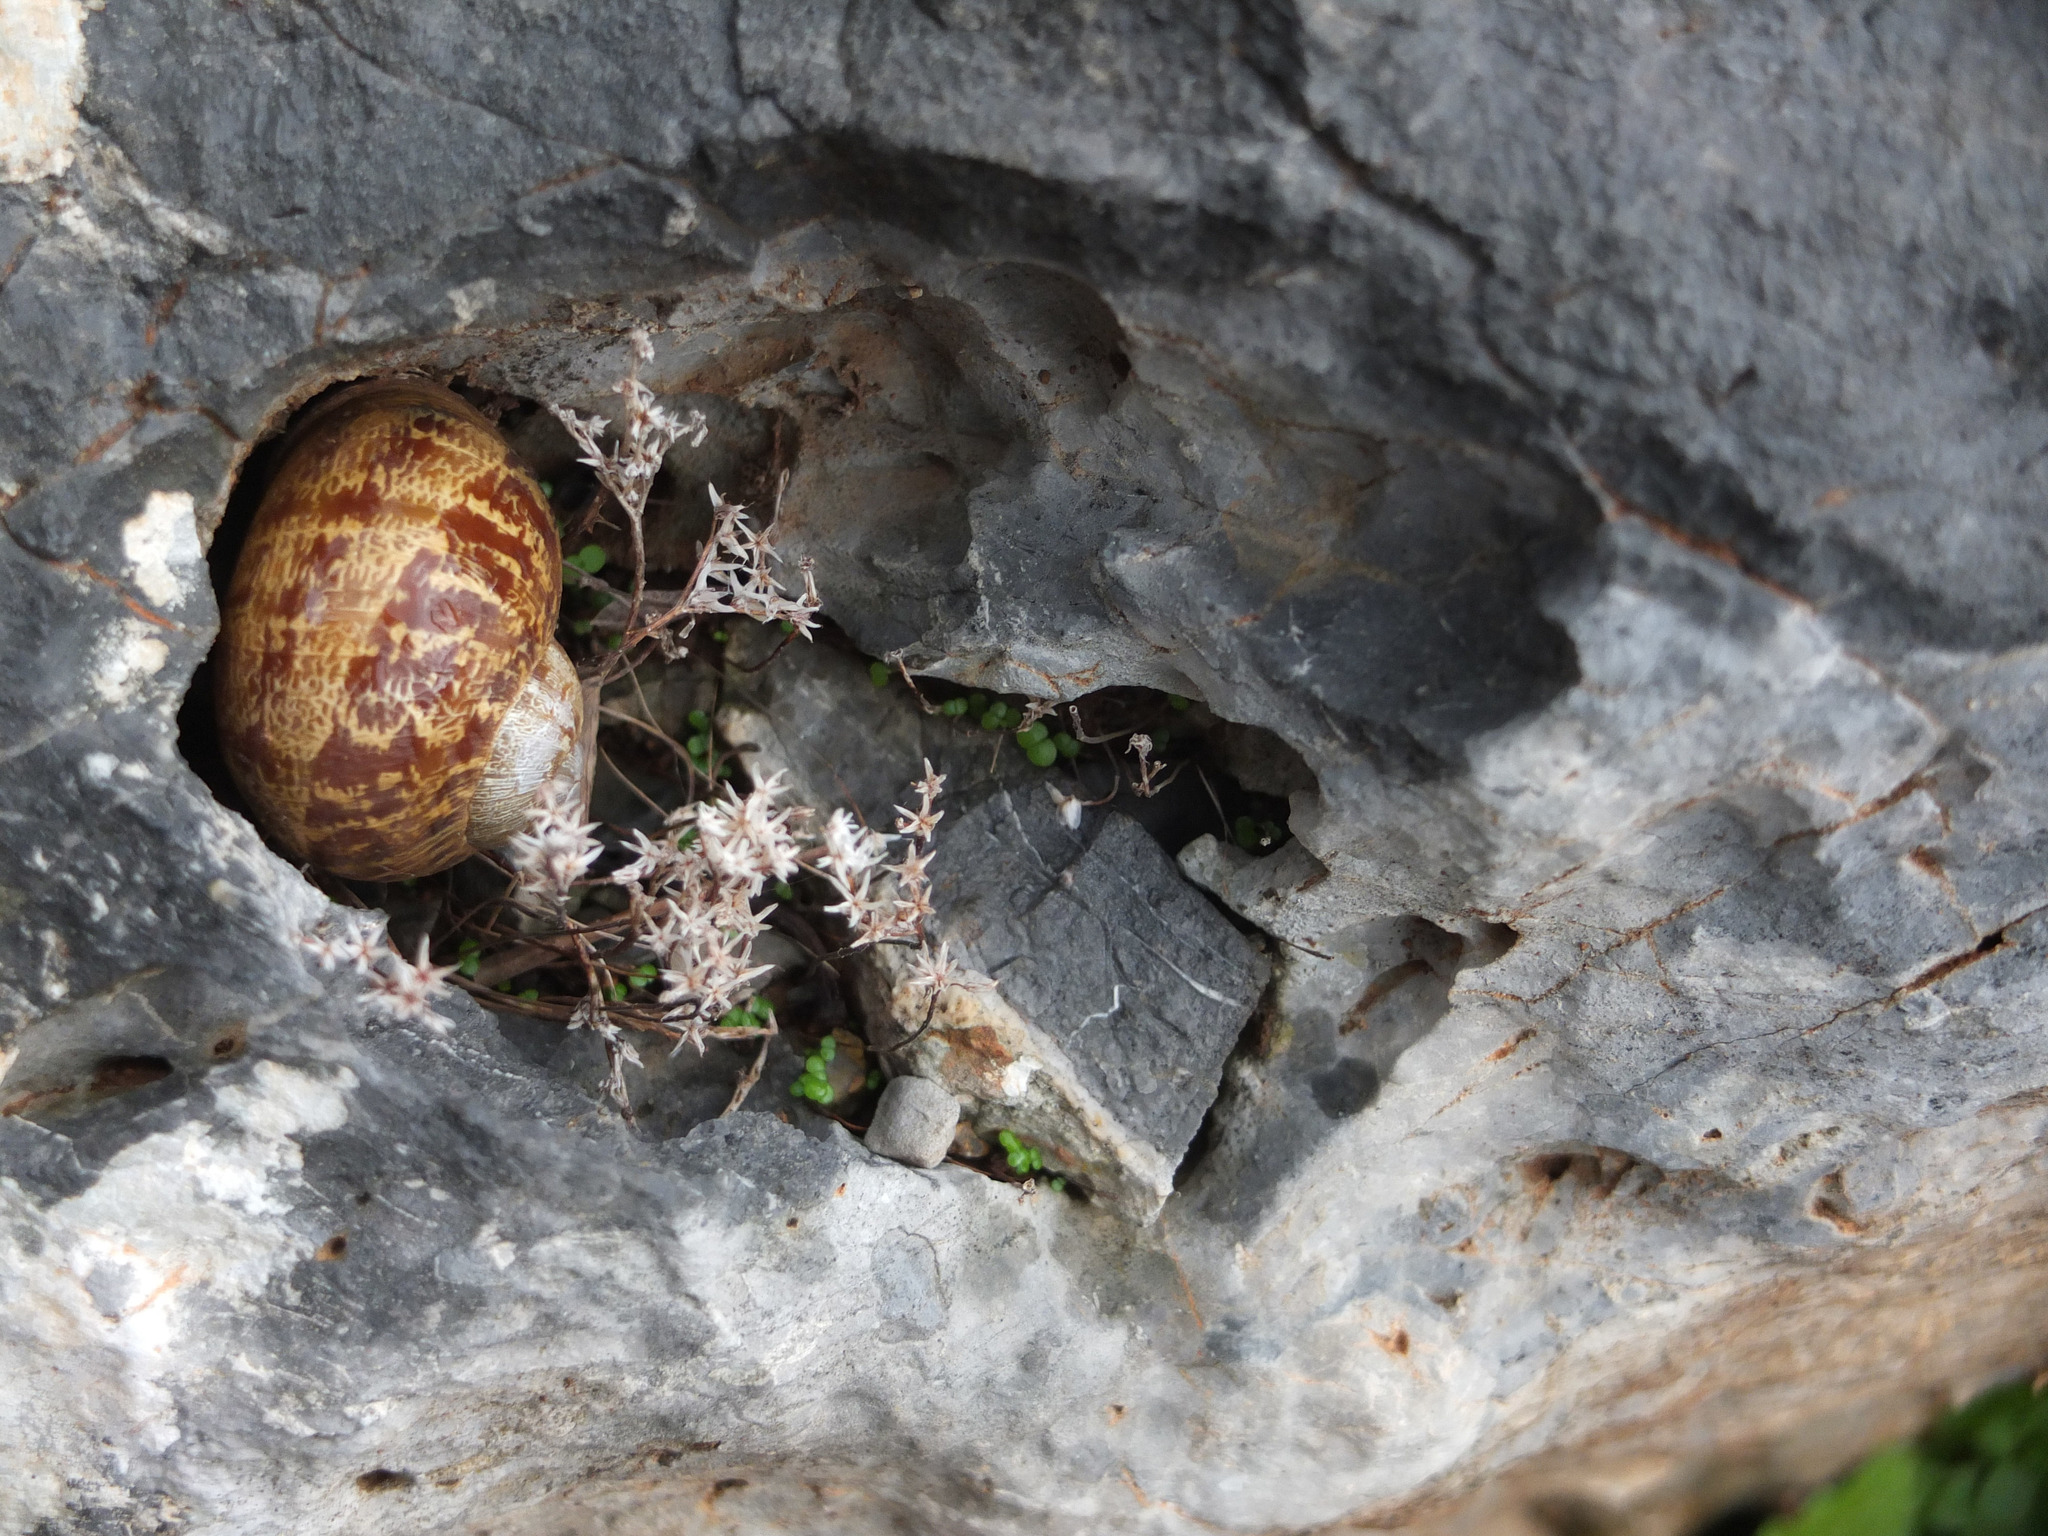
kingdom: Animalia
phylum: Mollusca
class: Gastropoda
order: Stylommatophora
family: Helicidae
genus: Cornu
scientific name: Cornu aspersum
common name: Brown garden snail
